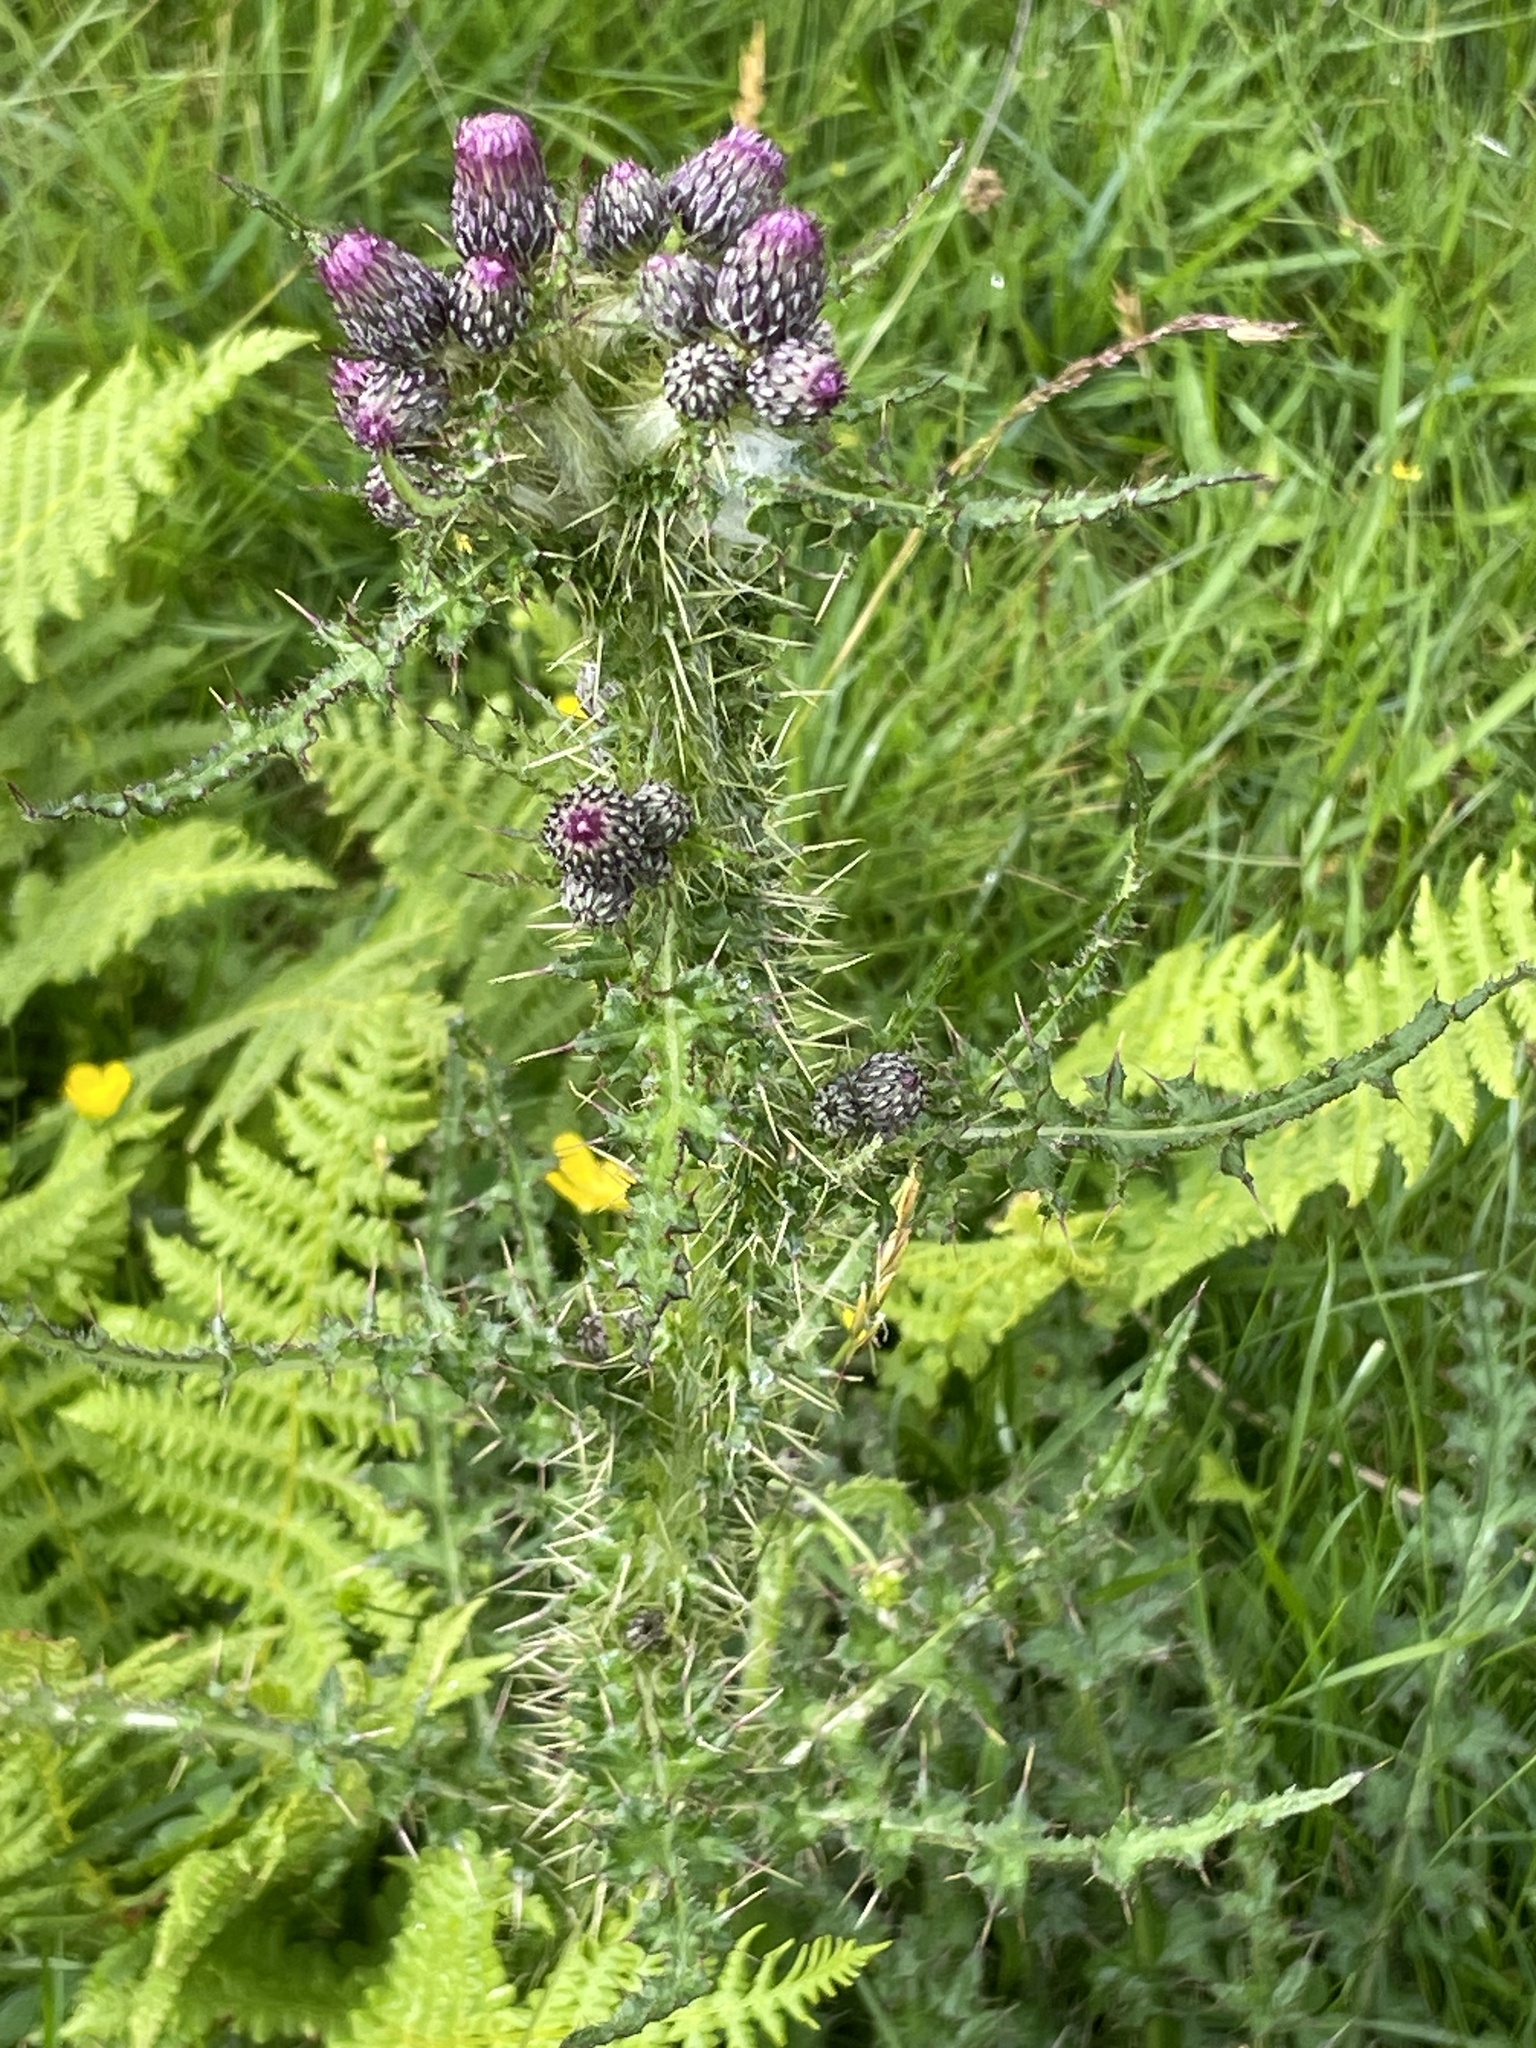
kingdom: Plantae
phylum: Tracheophyta
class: Magnoliopsida
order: Asterales
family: Asteraceae
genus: Cirsium
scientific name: Cirsium palustre
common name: Marsh thistle
